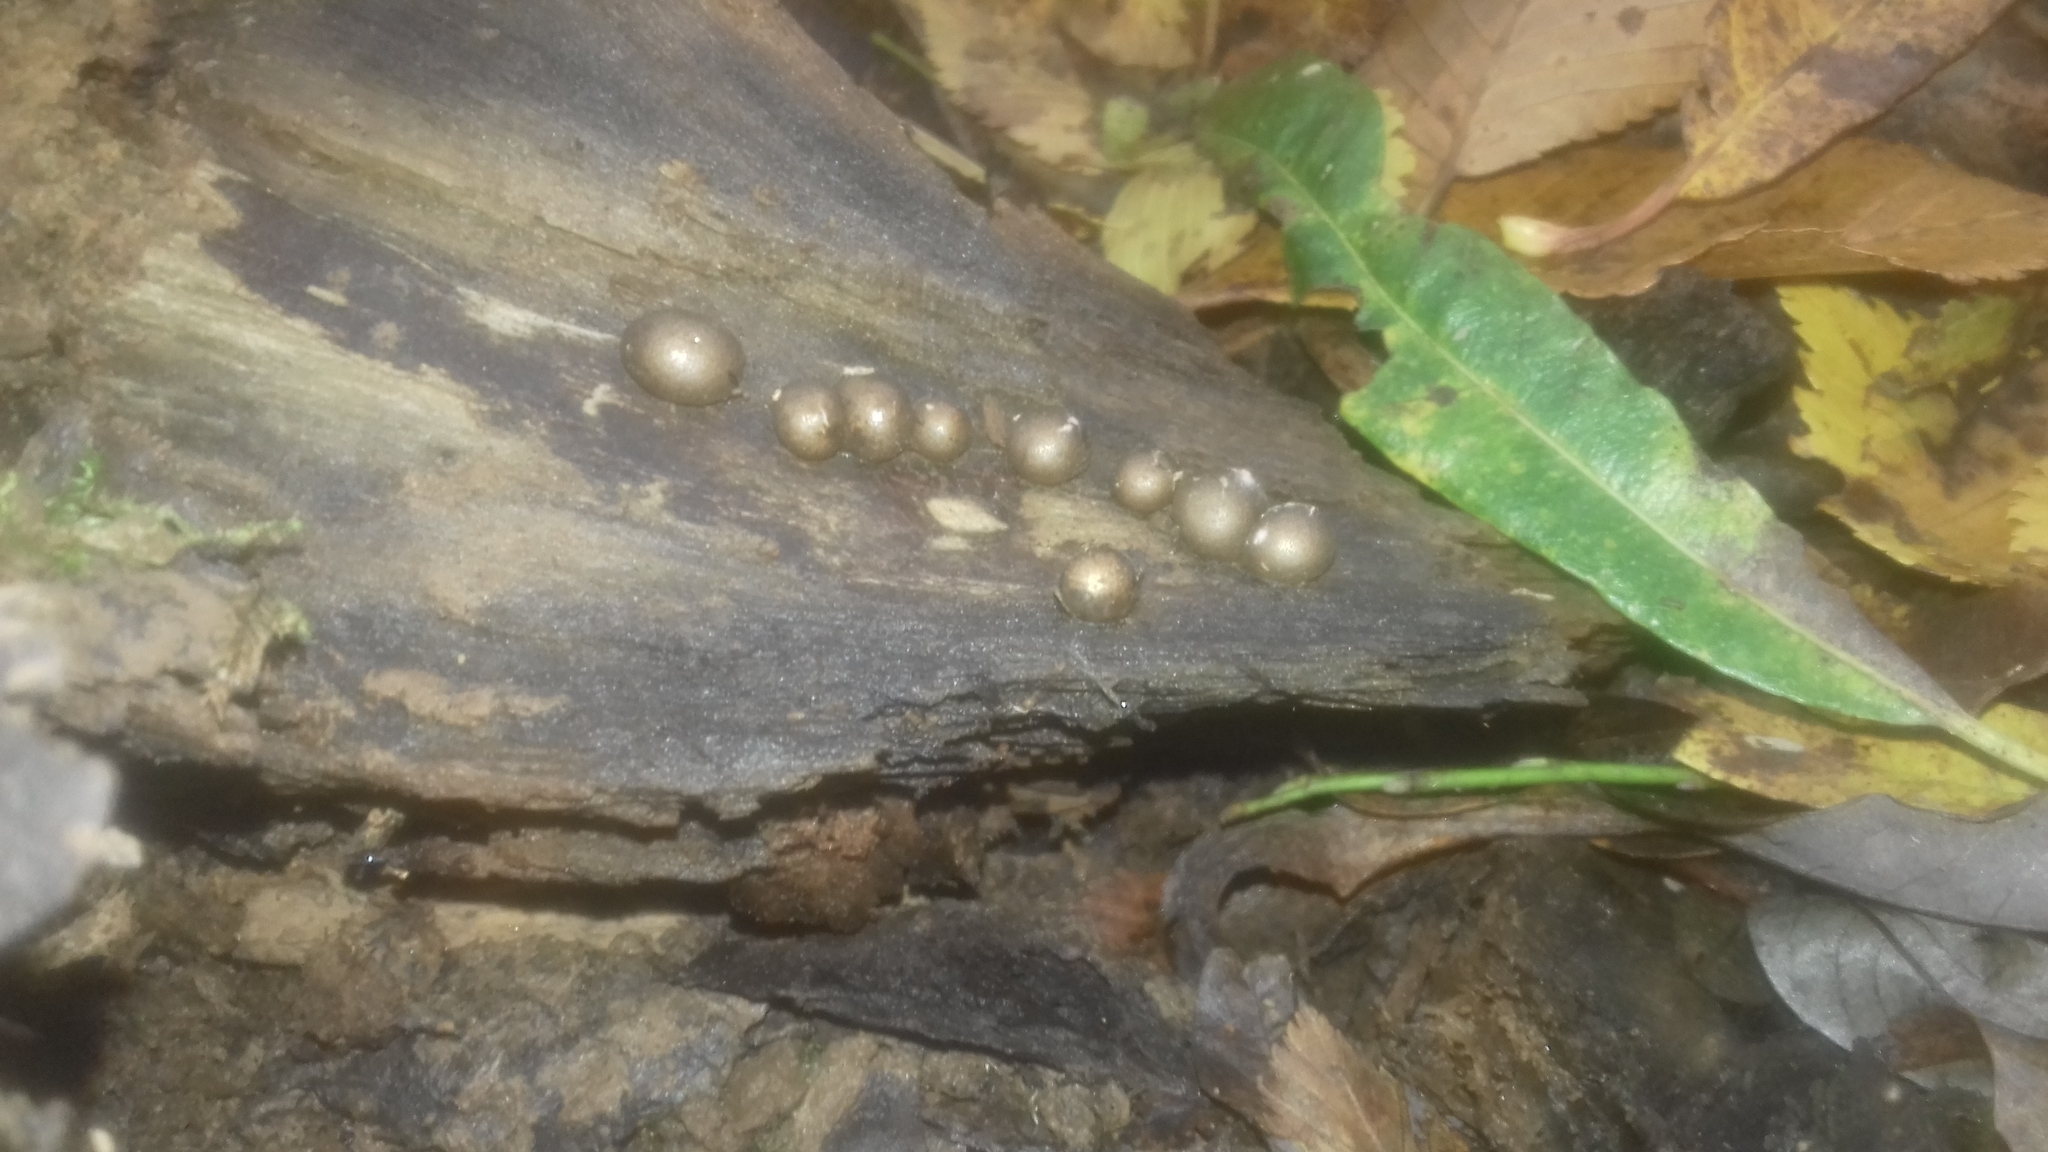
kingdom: Protozoa
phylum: Mycetozoa
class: Myxomycetes
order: Cribrariales
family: Tubiferaceae
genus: Lycogala
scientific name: Lycogala epidendrum
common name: Wolf's milk
